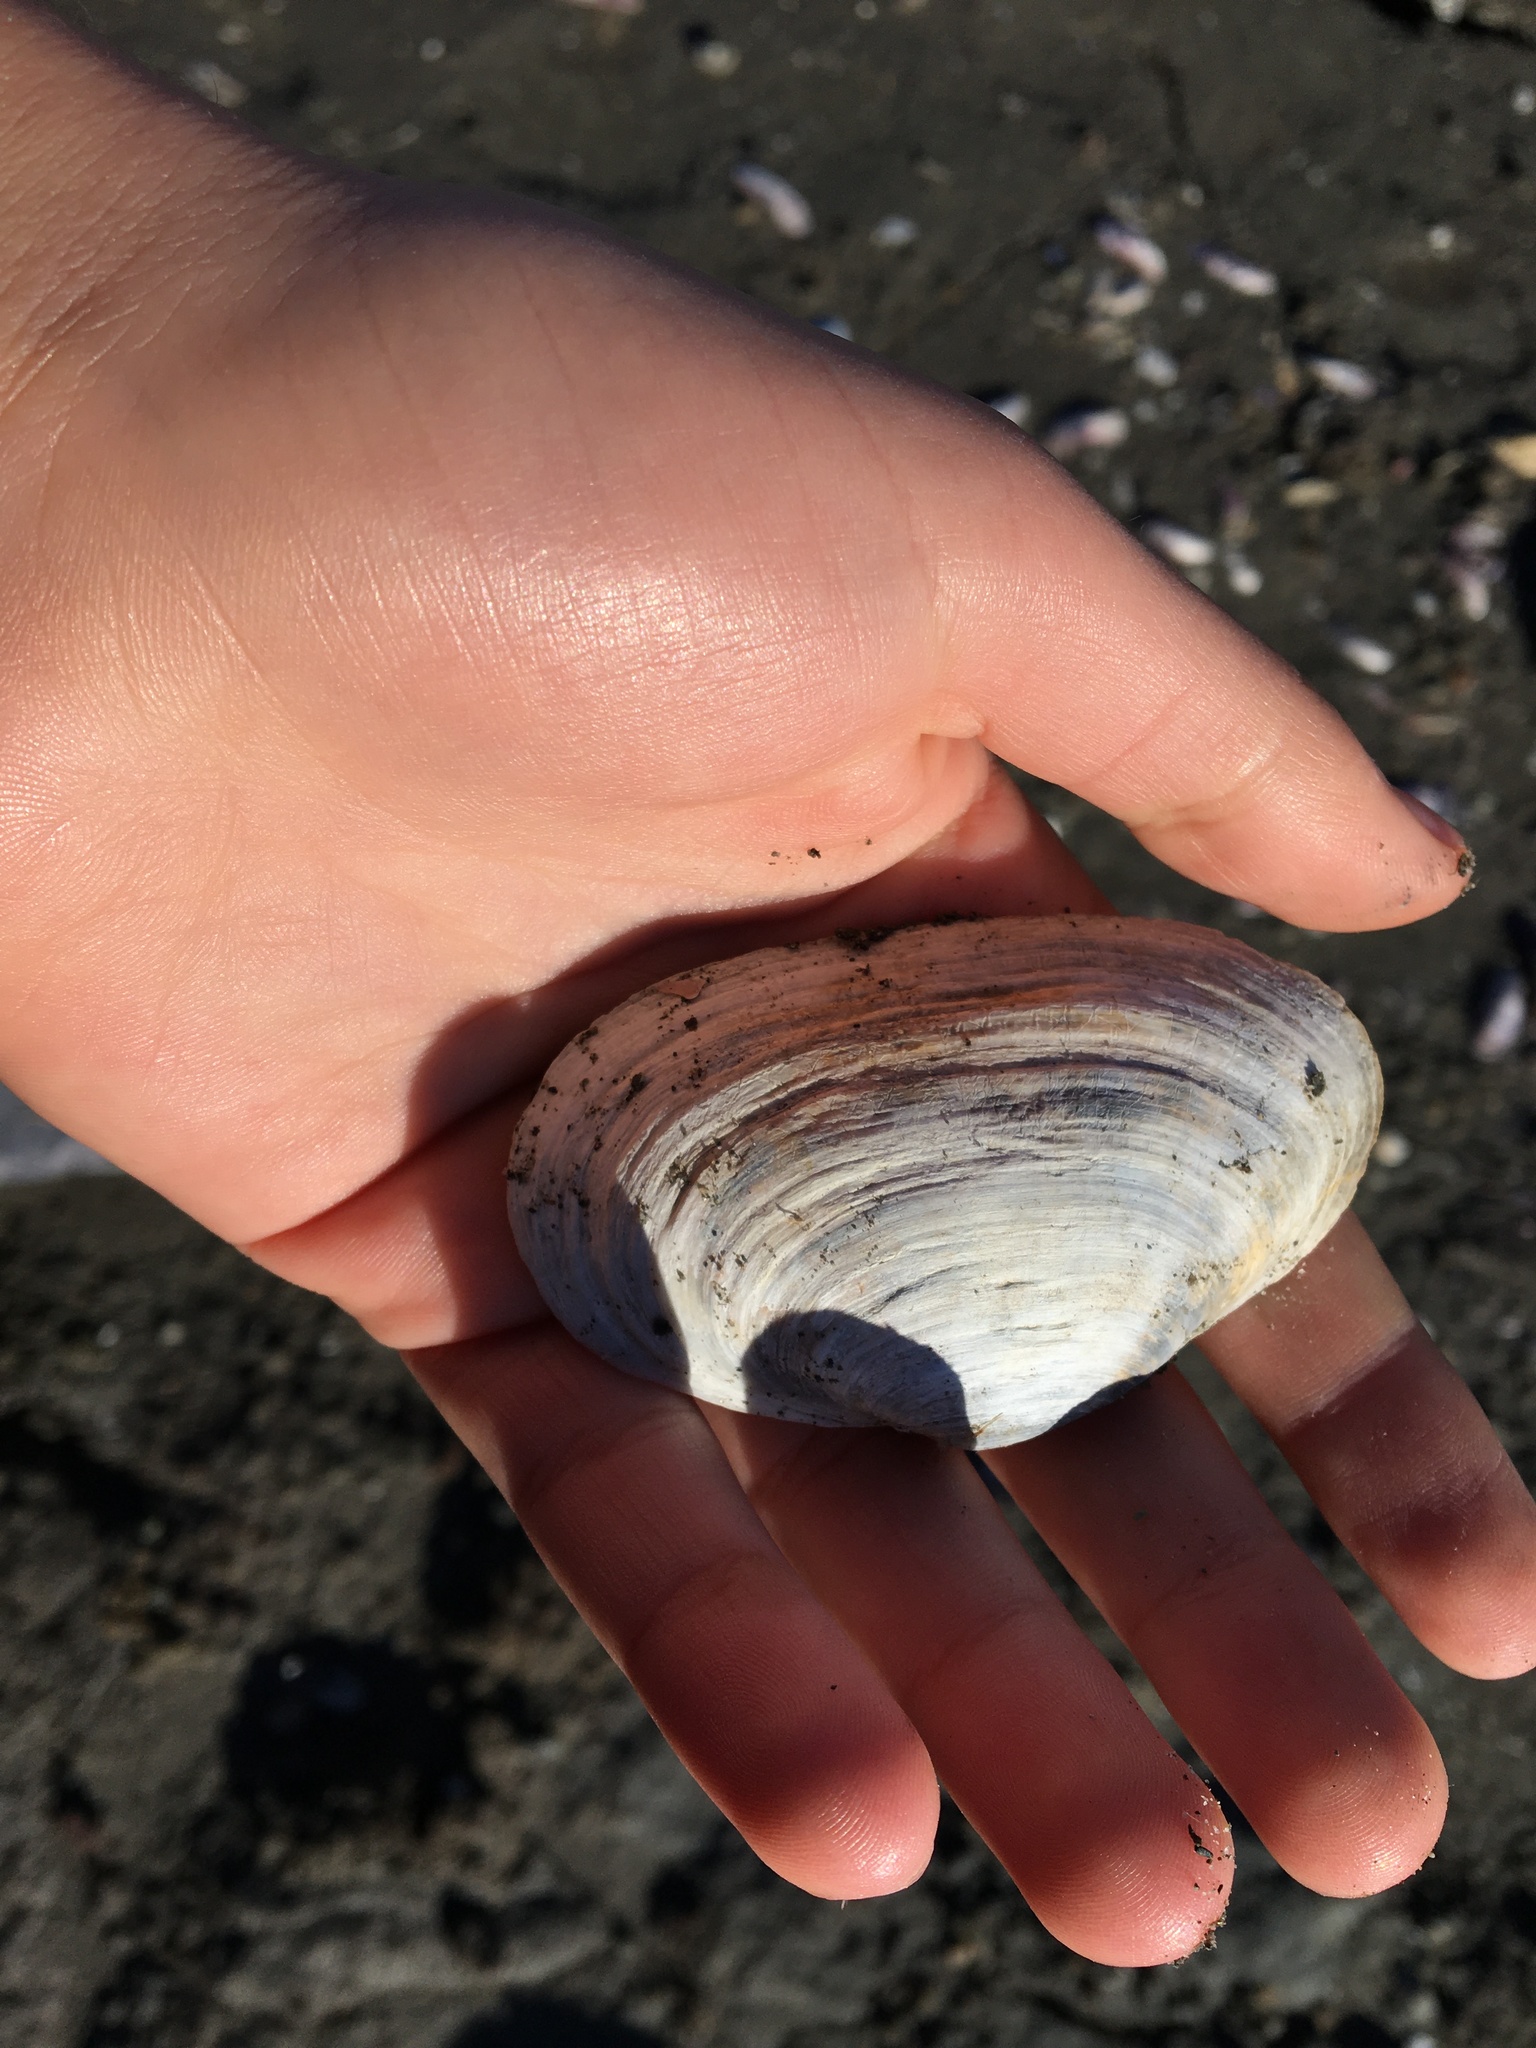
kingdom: Animalia
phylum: Mollusca
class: Bivalvia
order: Myida
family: Myidae
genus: Mya
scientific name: Mya arenaria
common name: Soft-shelled clam
